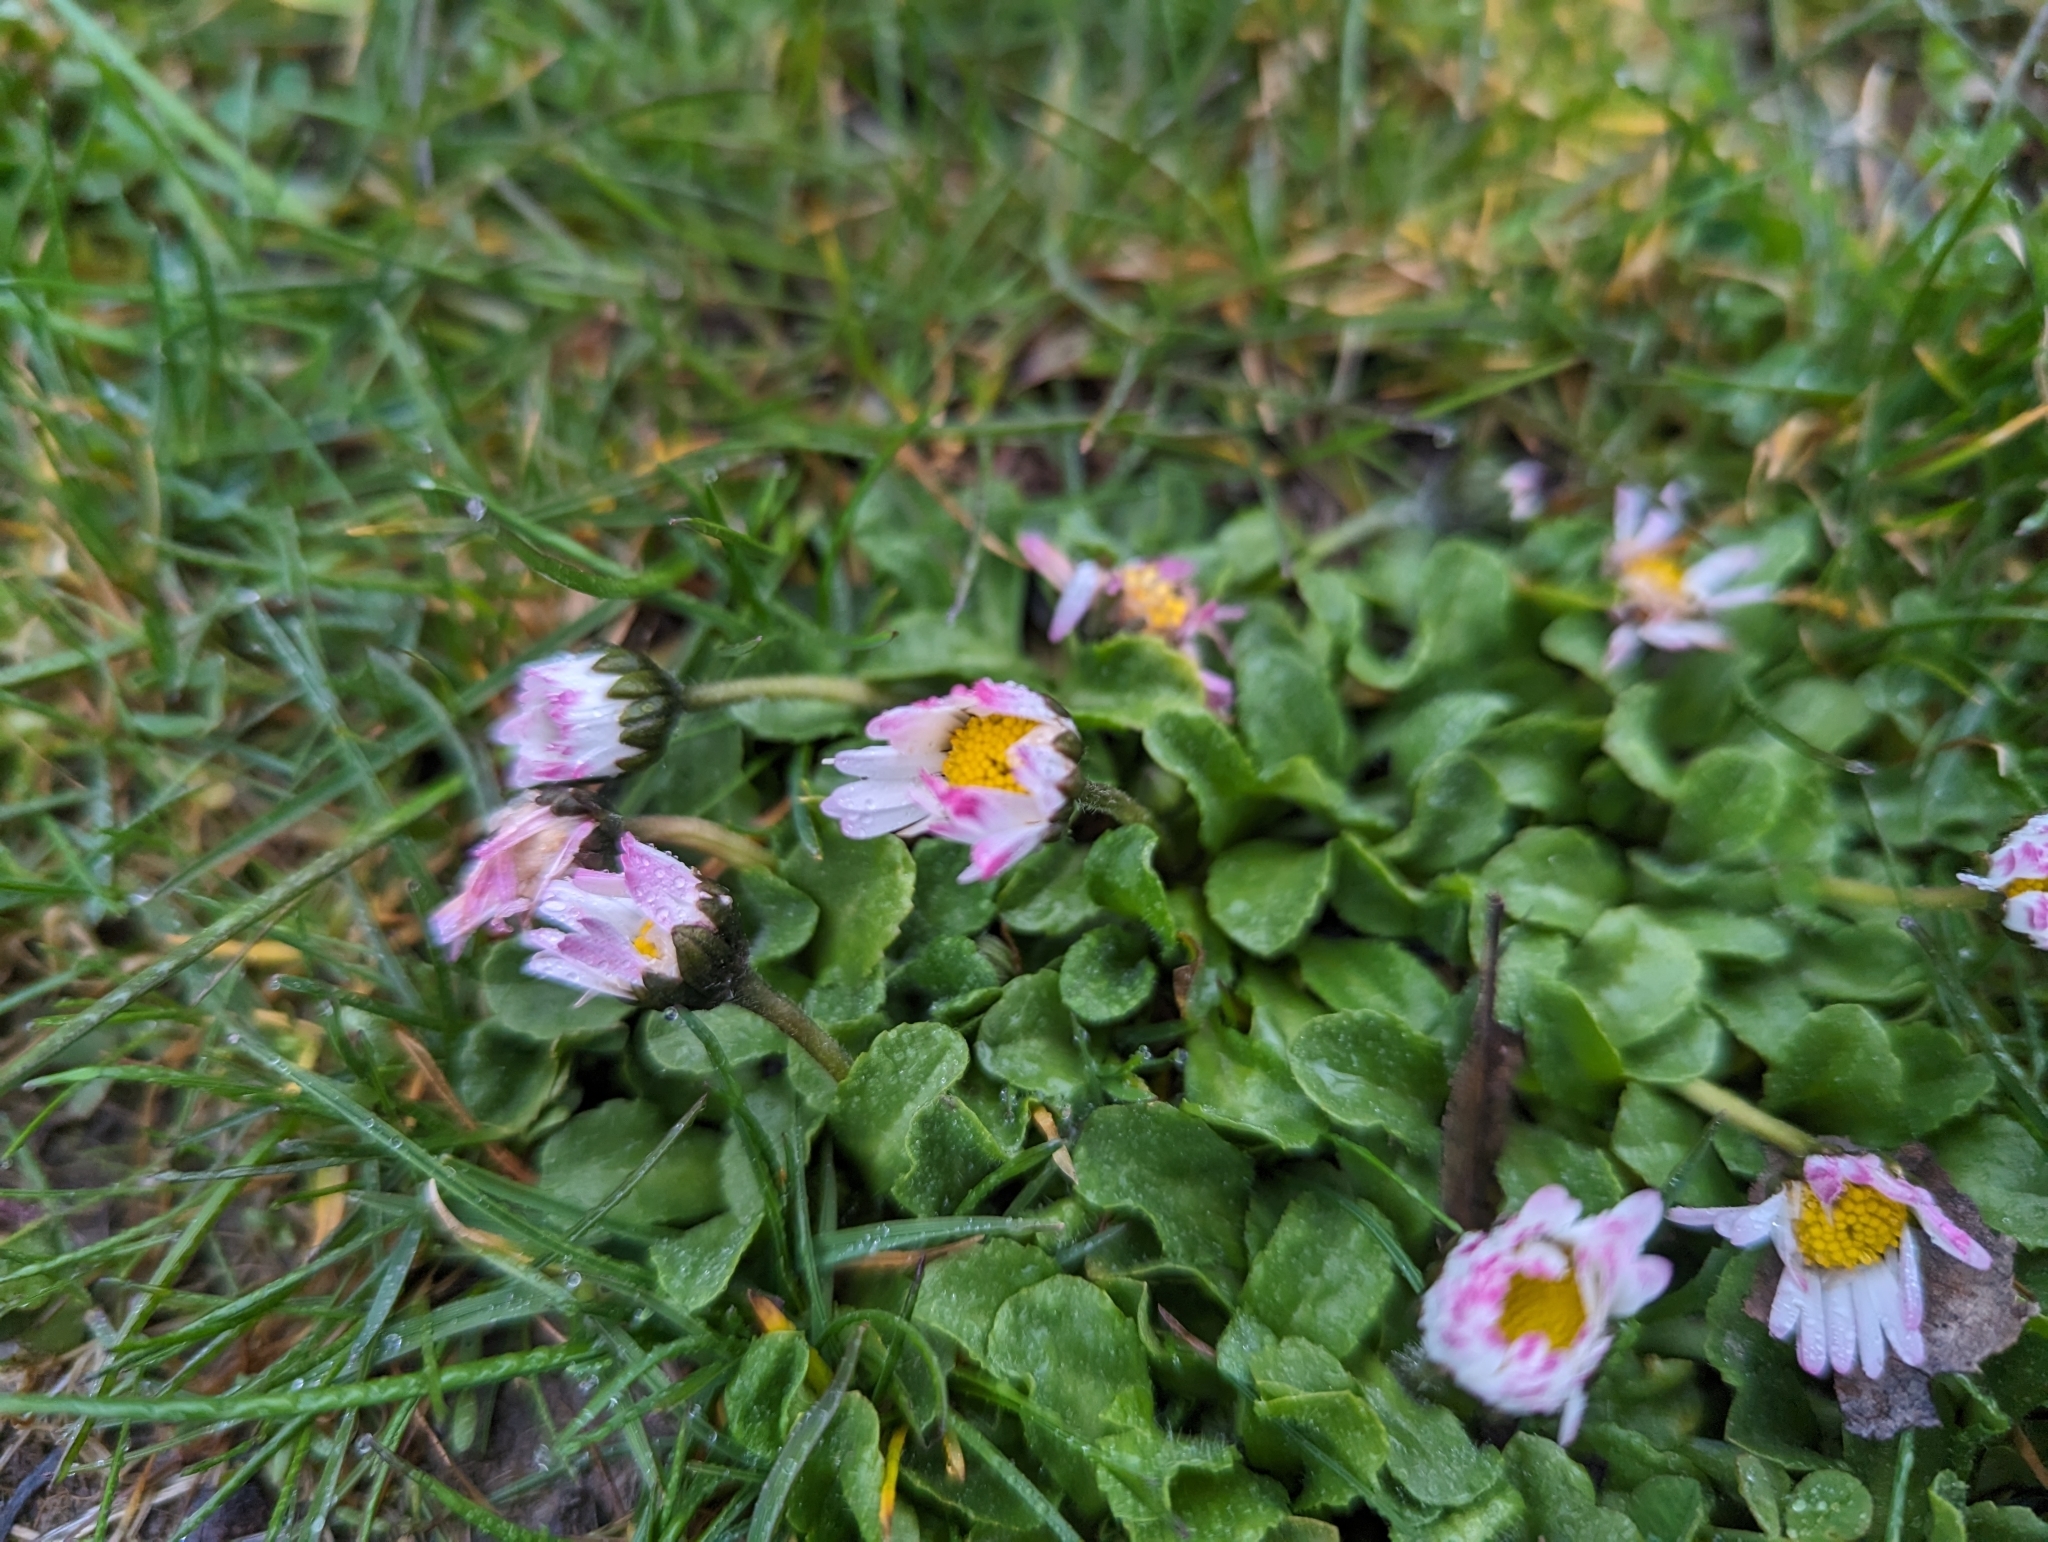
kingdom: Plantae
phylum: Tracheophyta
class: Magnoliopsida
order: Asterales
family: Asteraceae
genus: Bellis
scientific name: Bellis perennis
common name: Lawndaisy
